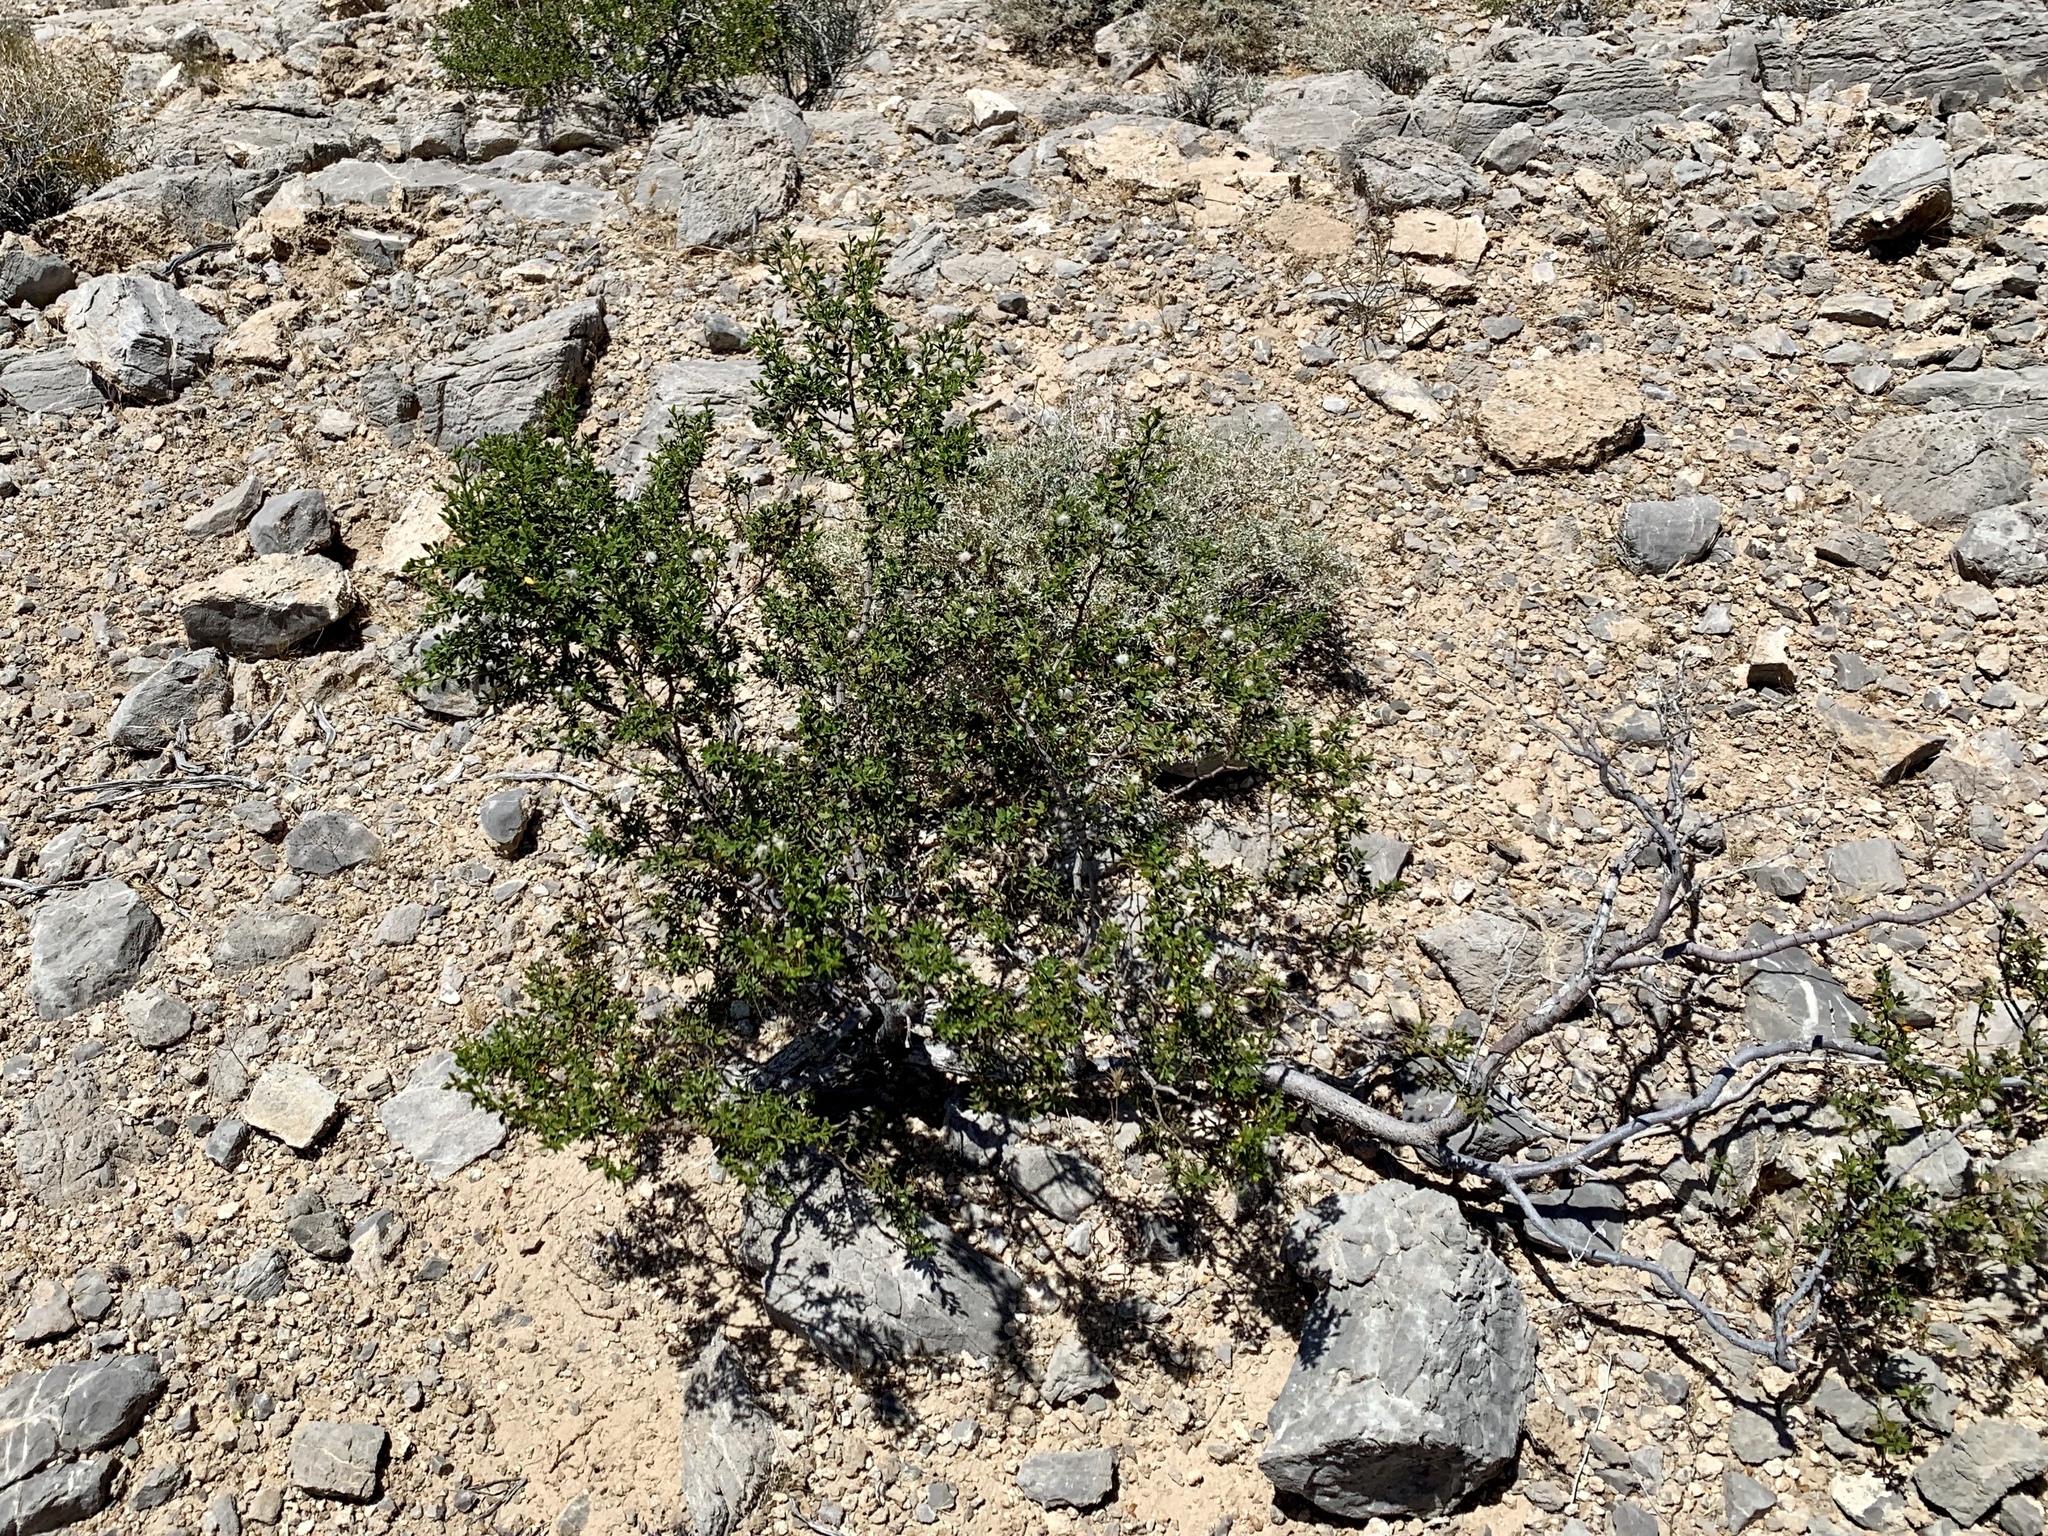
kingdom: Plantae
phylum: Tracheophyta
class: Magnoliopsida
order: Zygophyllales
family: Zygophyllaceae
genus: Larrea
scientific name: Larrea tridentata
